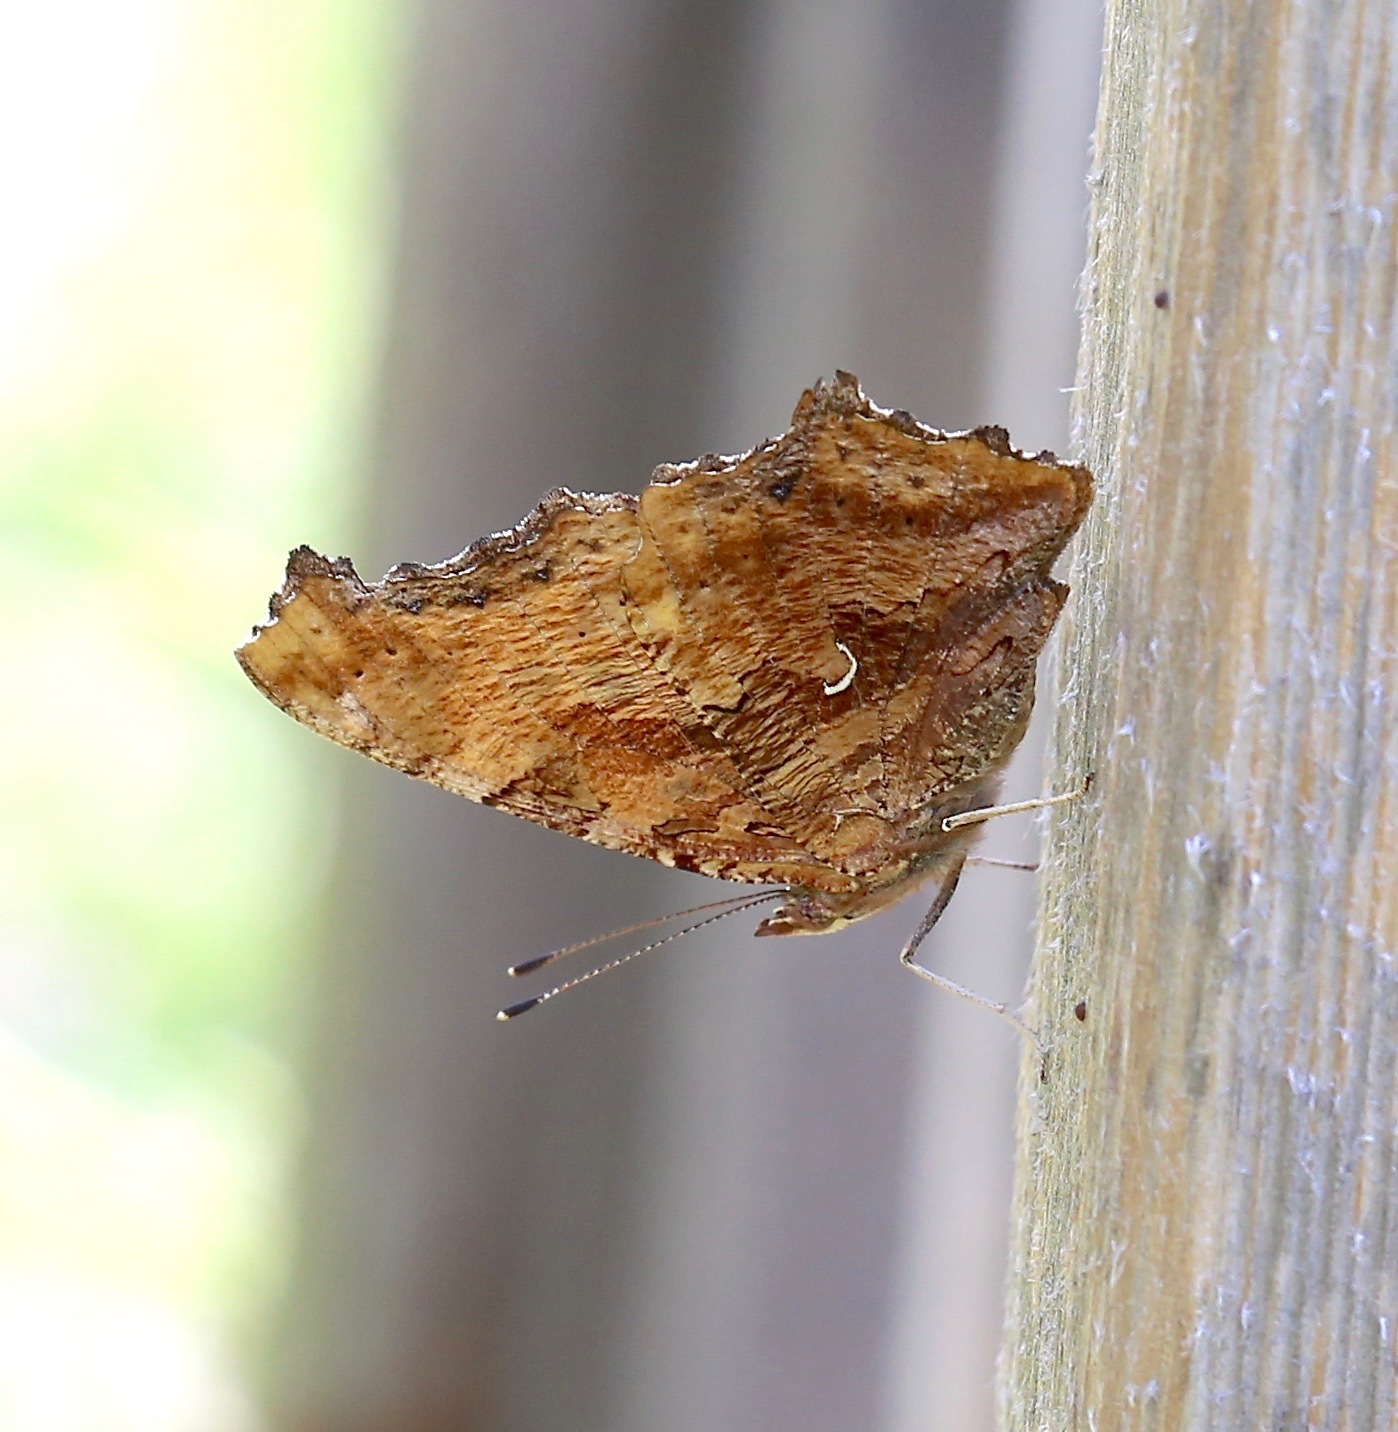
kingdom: Animalia
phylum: Arthropoda
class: Insecta
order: Lepidoptera
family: Nymphalidae
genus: Polygonia
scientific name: Polygonia comma
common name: Eastern comma
